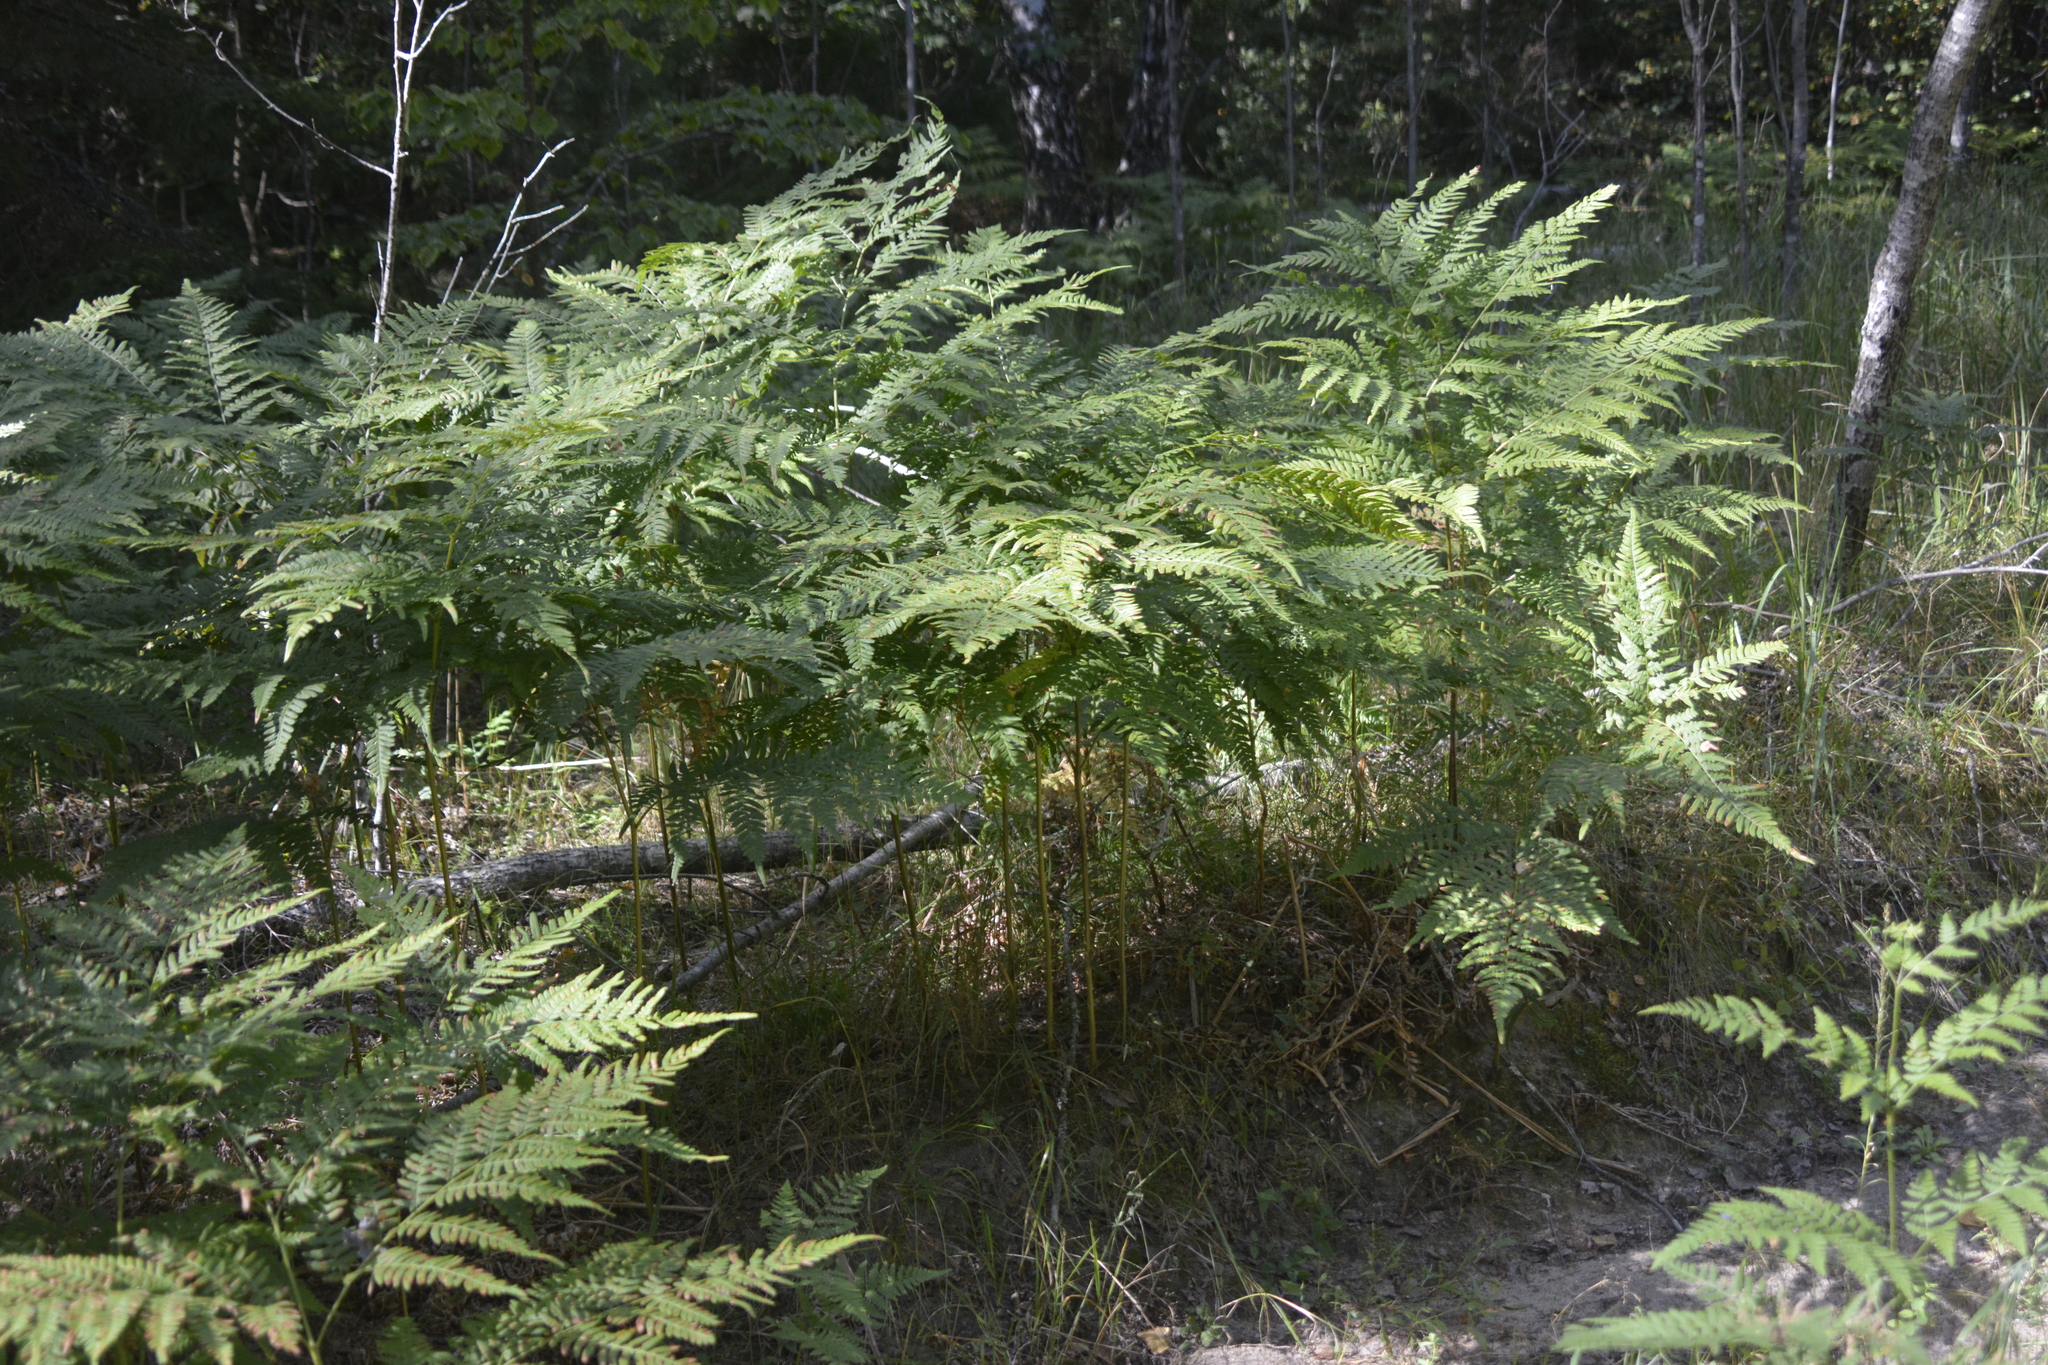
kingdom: Plantae
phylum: Tracheophyta
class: Polypodiopsida
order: Polypodiales
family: Dennstaedtiaceae
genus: Pteridium
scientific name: Pteridium aquilinum
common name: Bracken
